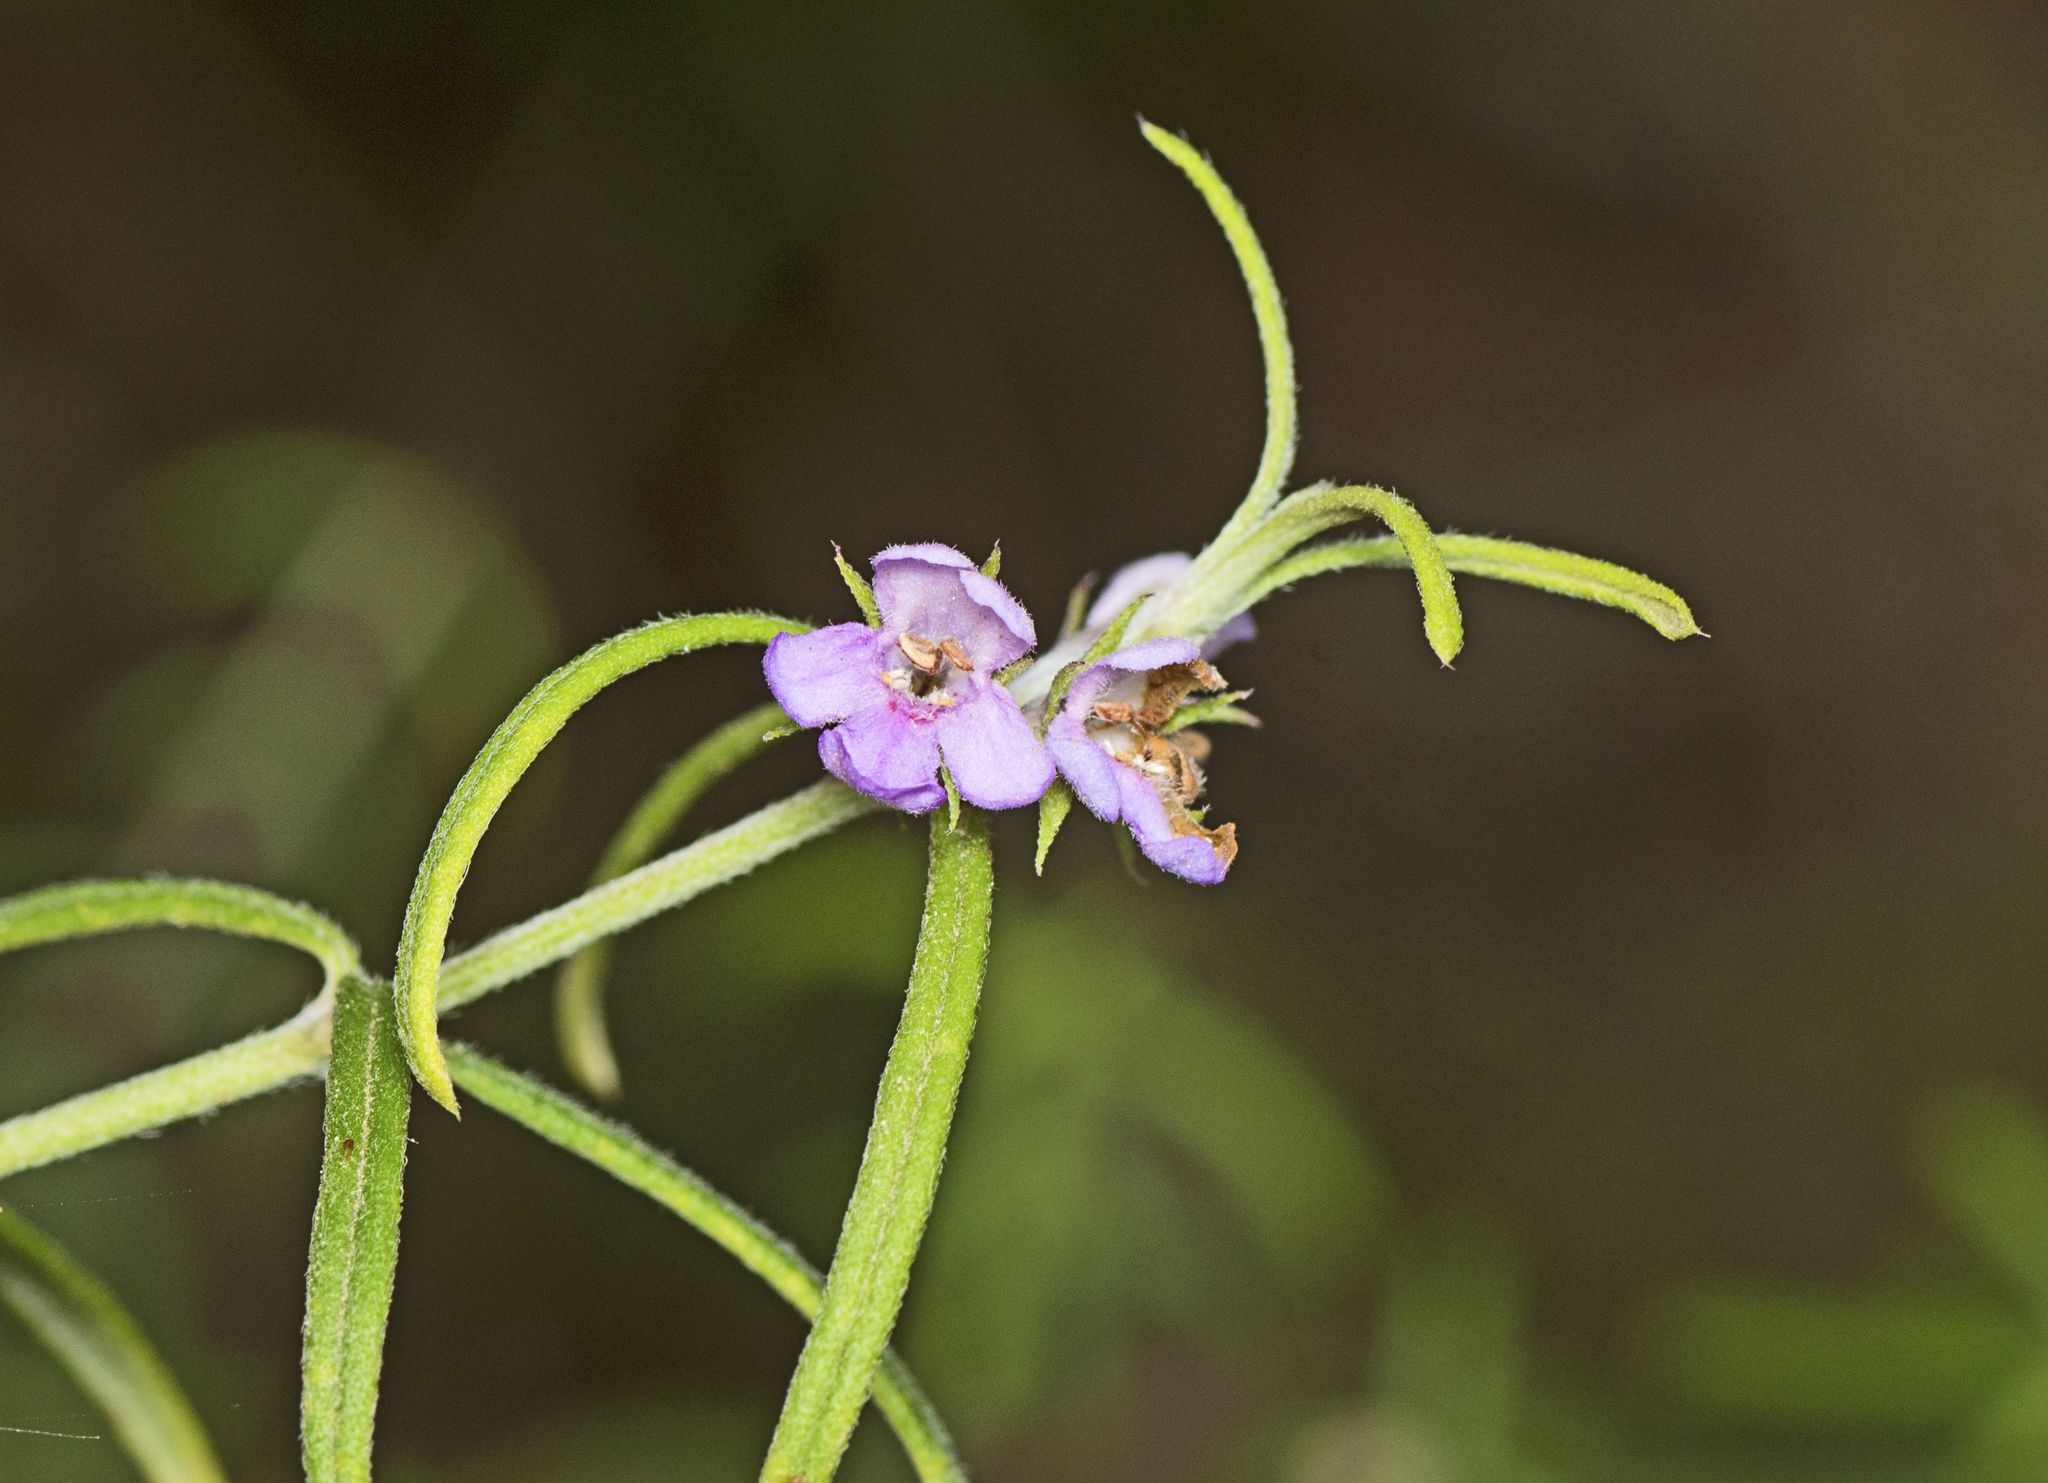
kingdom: Plantae
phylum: Tracheophyta
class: Magnoliopsida
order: Lamiales
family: Lamiaceae
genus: Westringia
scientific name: Westringia eremicola
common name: Slender western-rosemary
